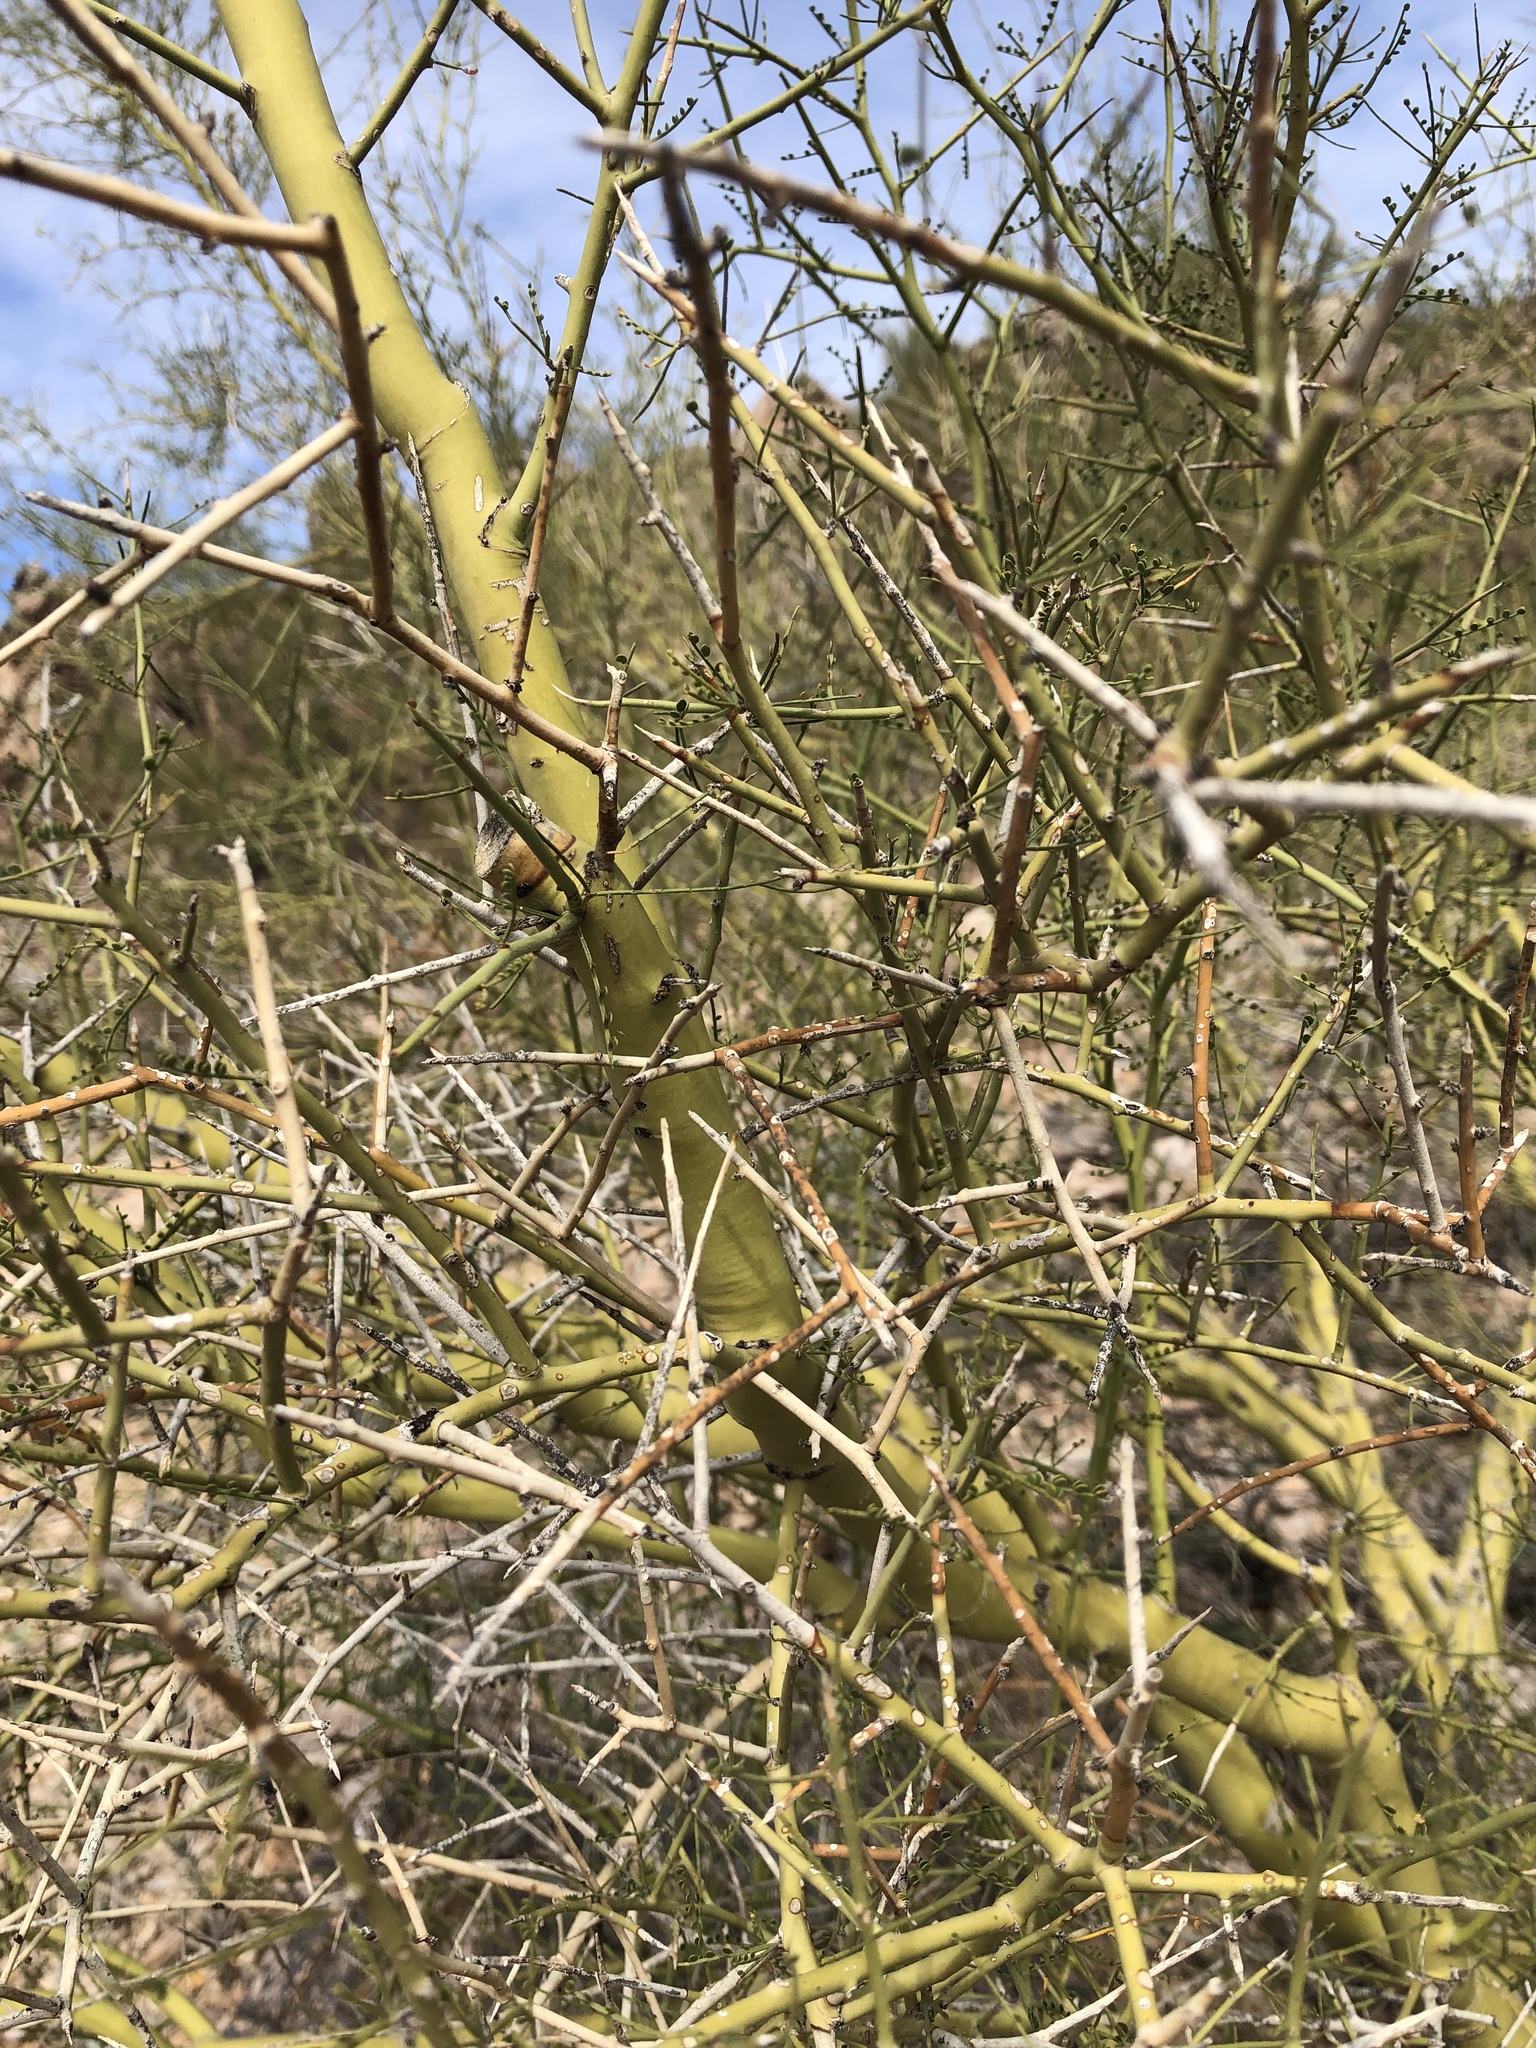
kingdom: Plantae
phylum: Tracheophyta
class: Magnoliopsida
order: Fabales
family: Fabaceae
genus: Parkinsonia
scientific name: Parkinsonia microphylla
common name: Yellow paloverde
